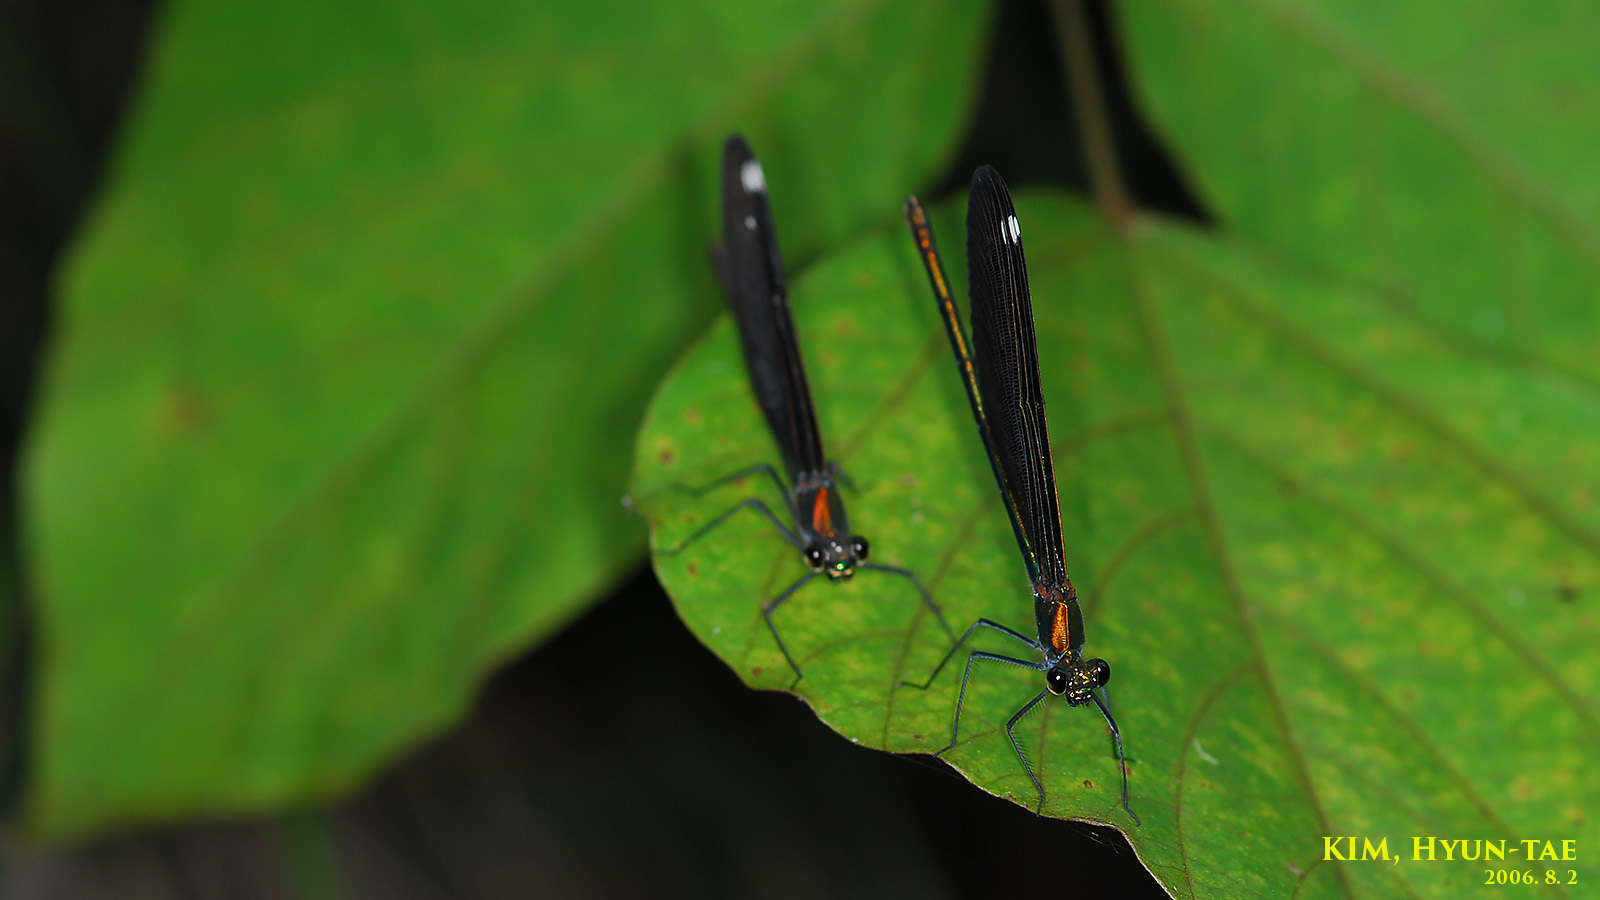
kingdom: Animalia
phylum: Arthropoda
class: Insecta
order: Odonata
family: Calopterygidae
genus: Calopteryx
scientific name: Calopteryx japonica
